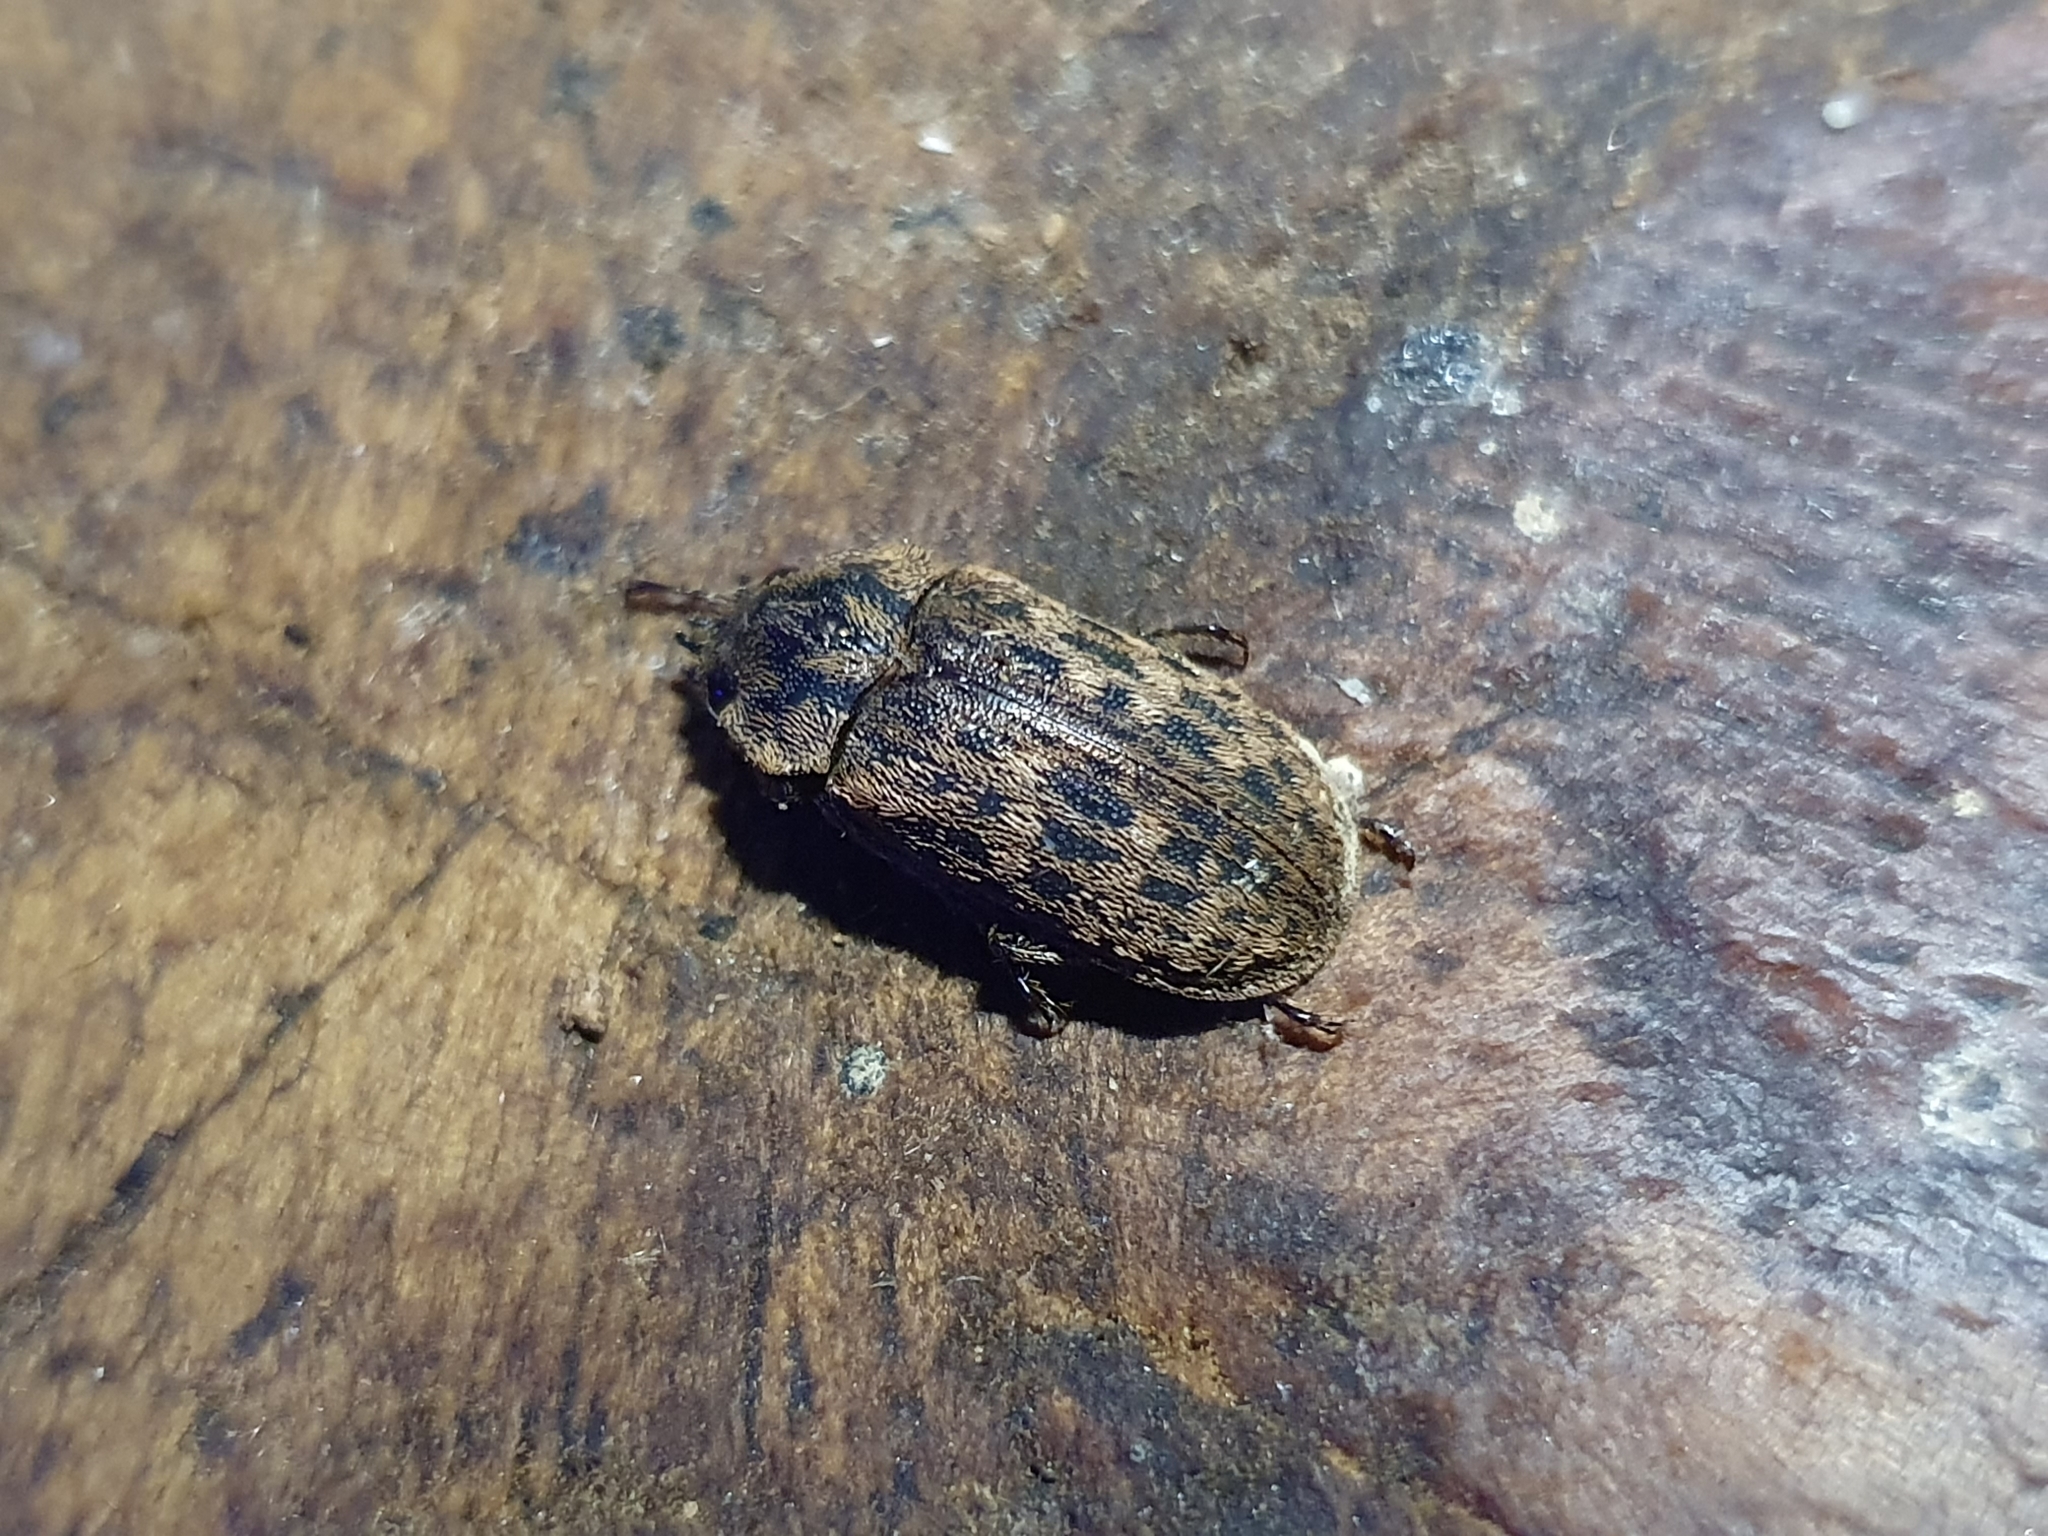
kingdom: Animalia
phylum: Arthropoda
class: Insecta
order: Coleoptera
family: Lucanidae
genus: Mitophyllus
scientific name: Mitophyllus parrianus
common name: Parry's stag beetle
